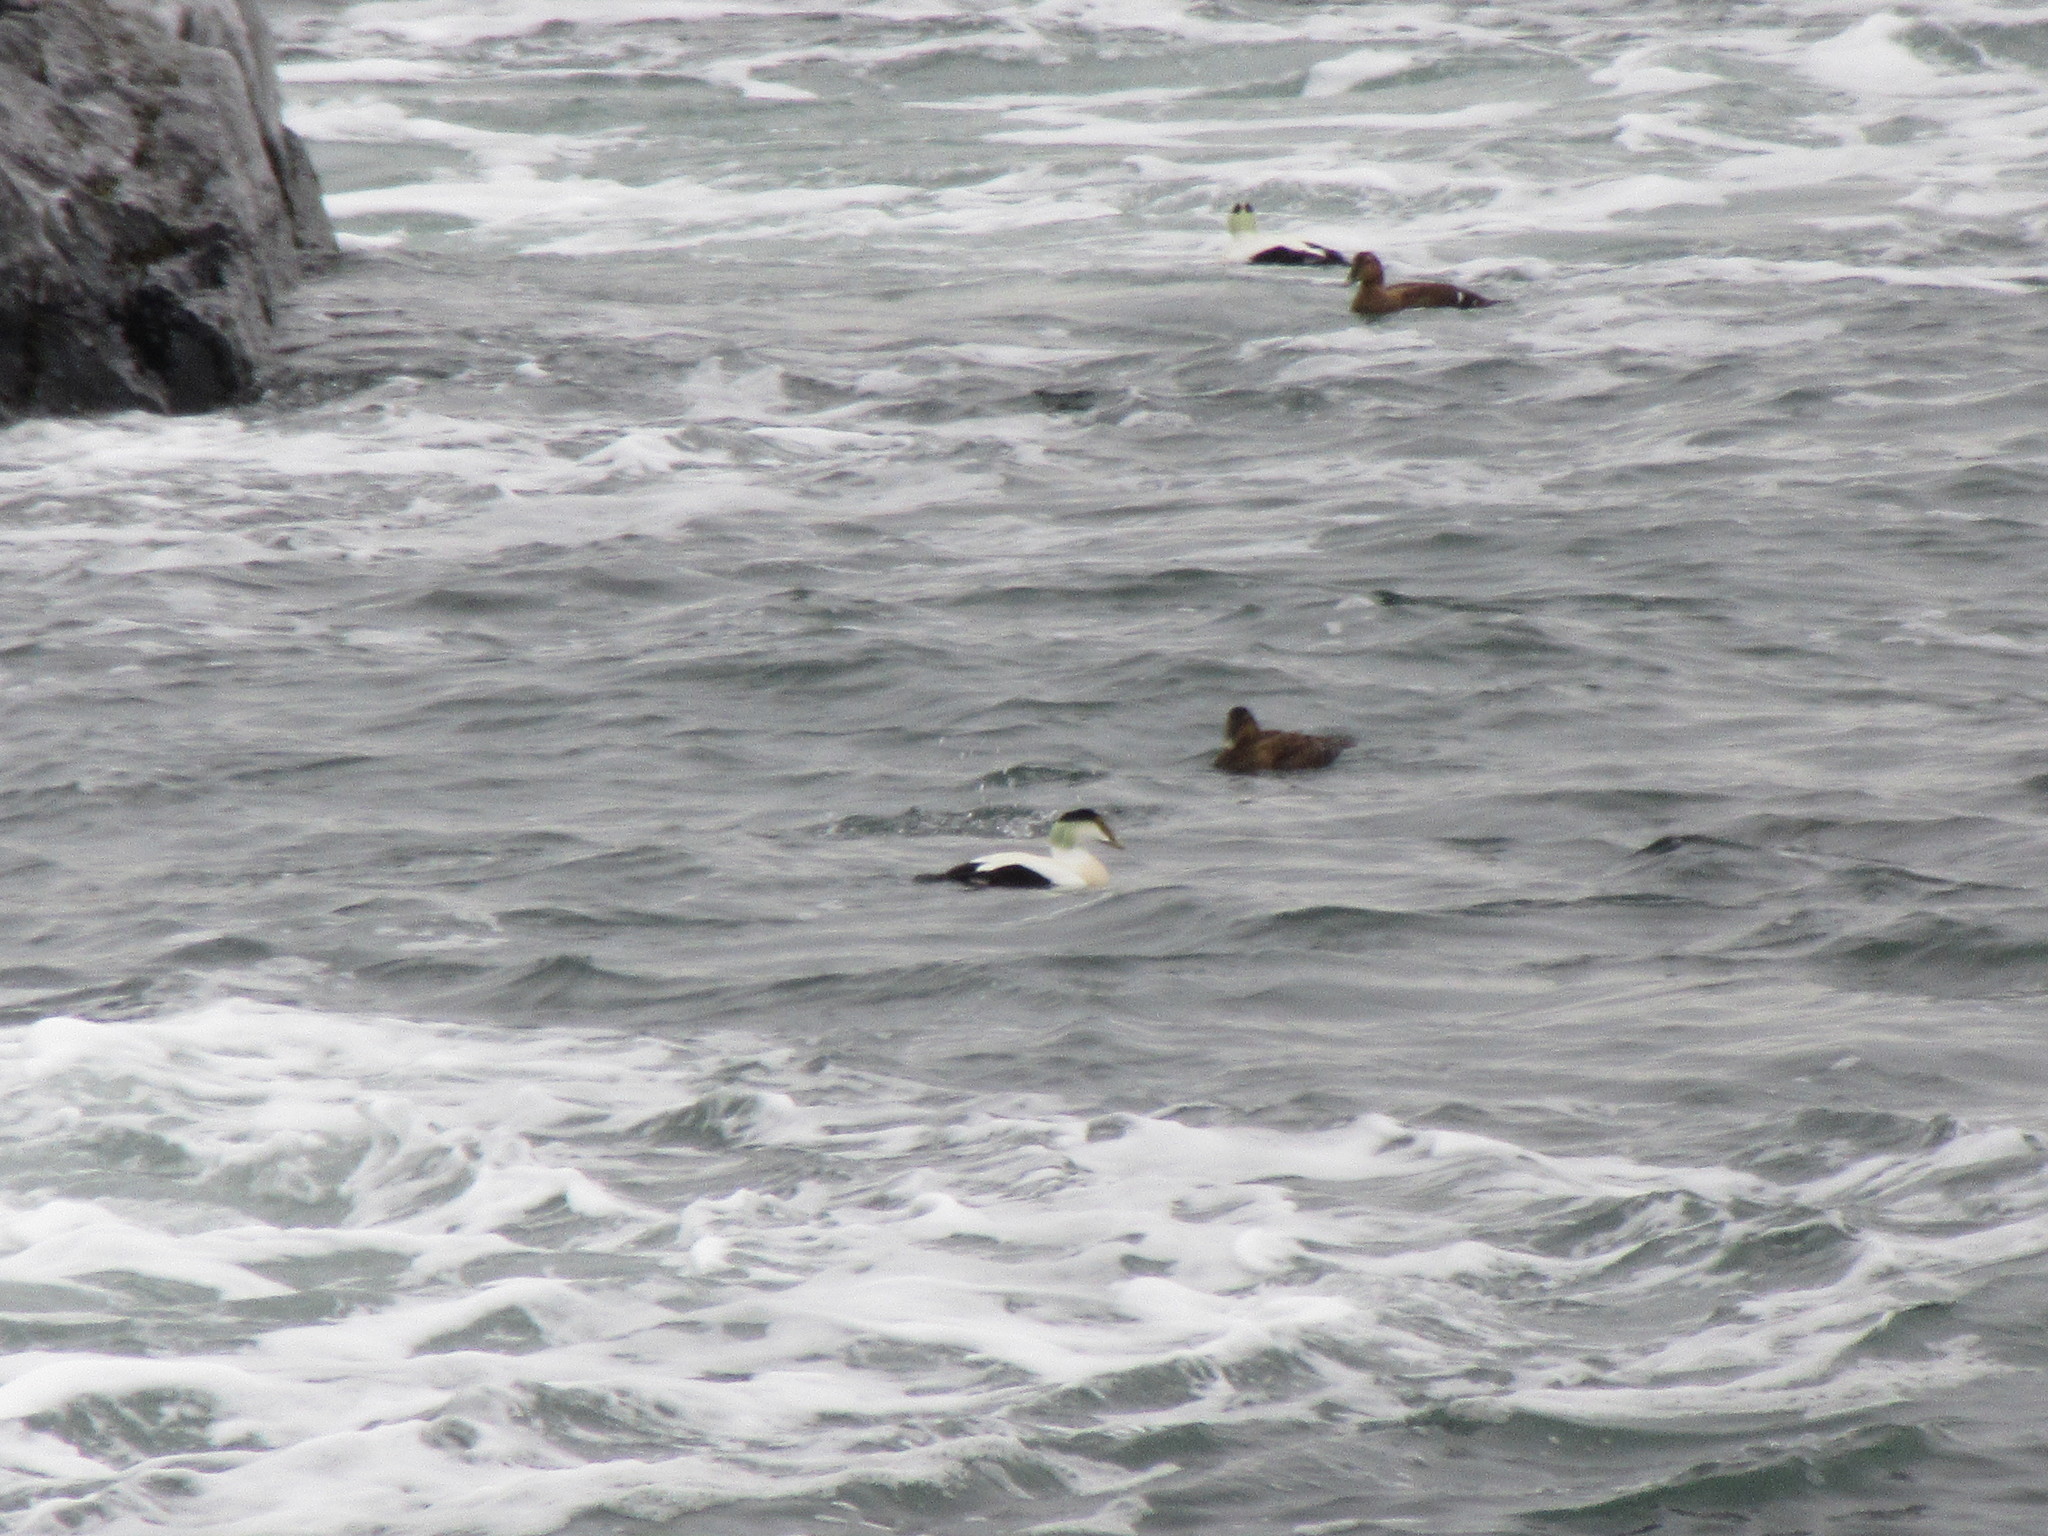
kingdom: Animalia
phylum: Chordata
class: Aves
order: Anseriformes
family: Anatidae
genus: Somateria
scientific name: Somateria mollissima
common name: Common eider
